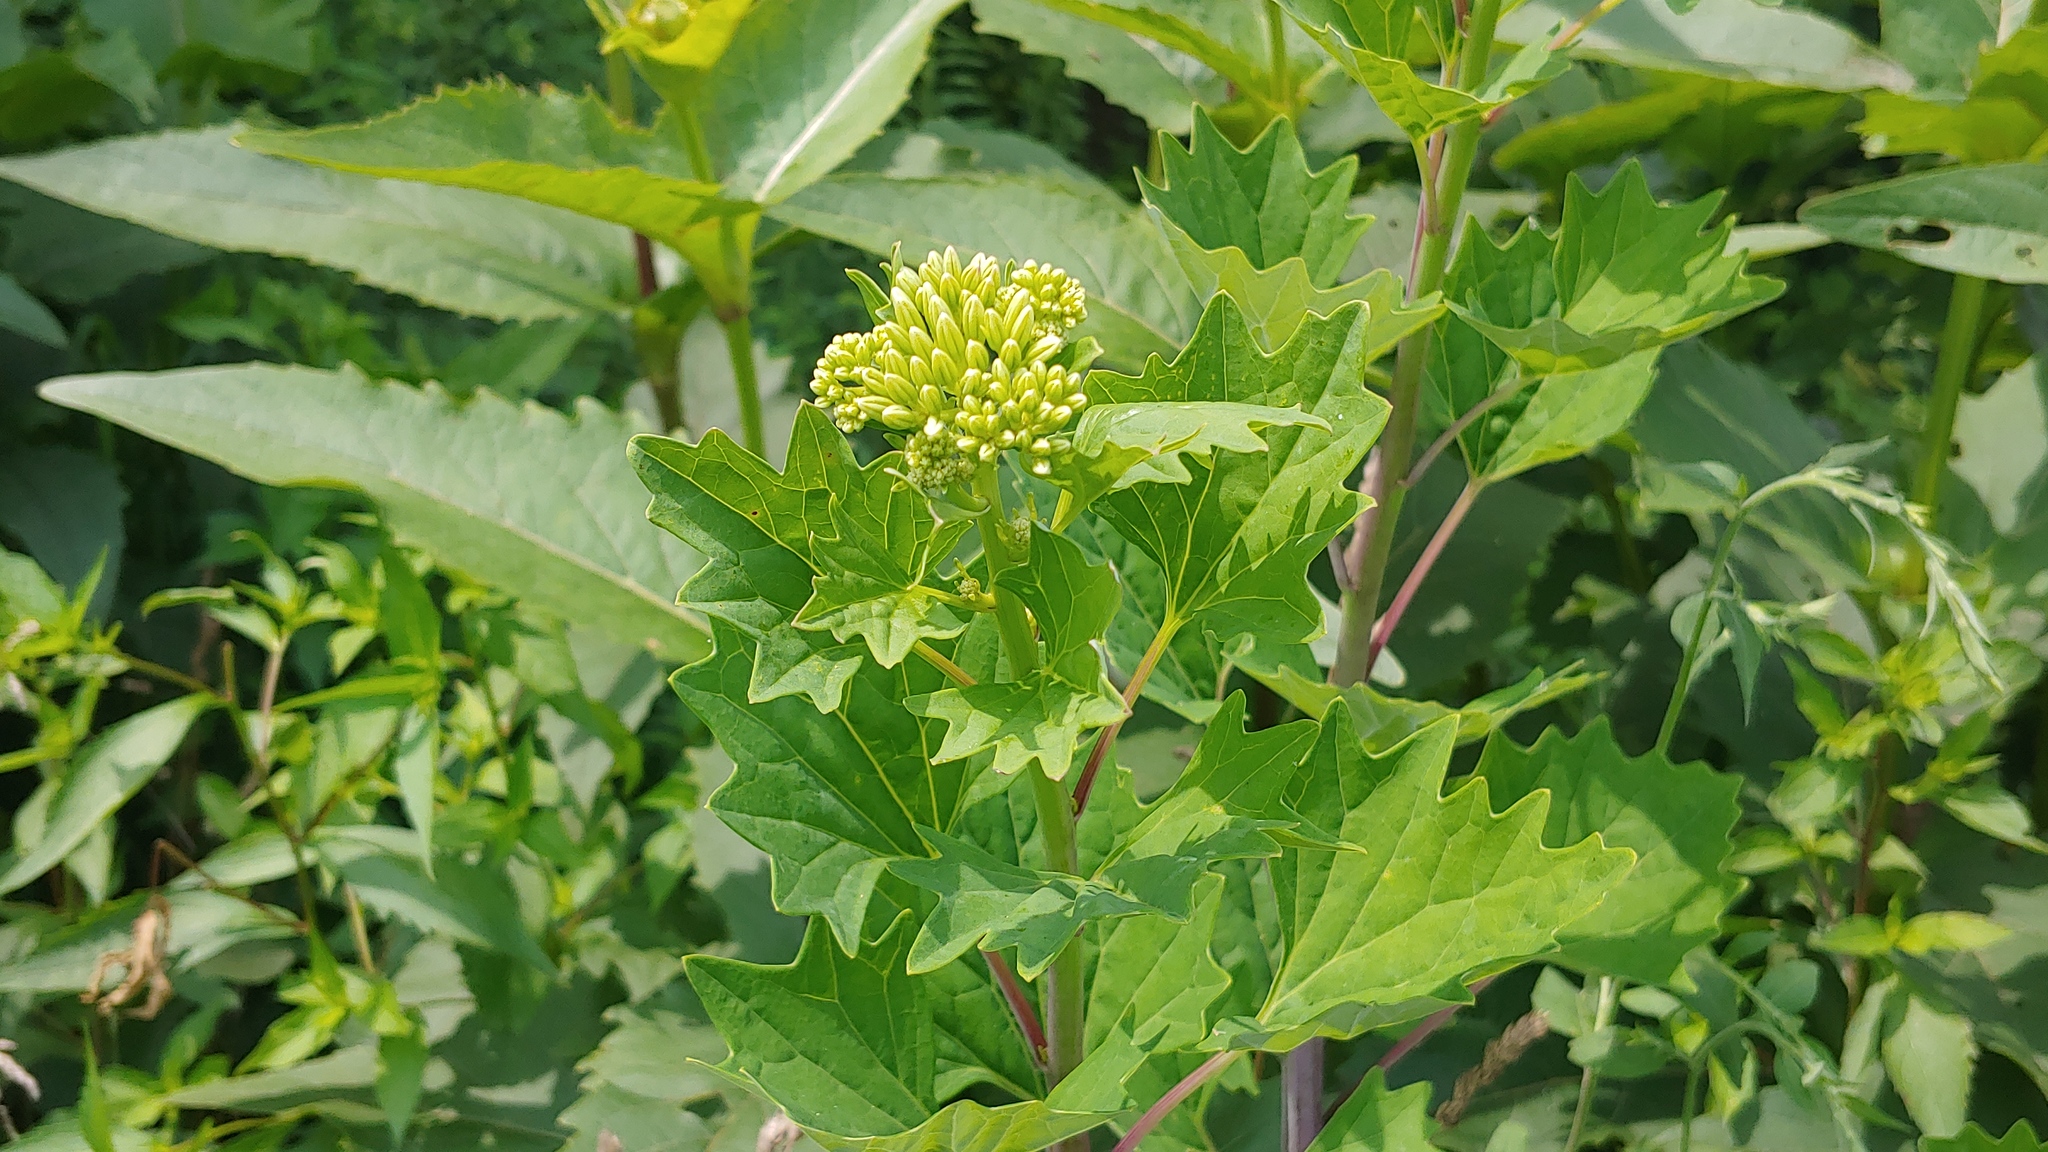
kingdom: Plantae
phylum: Tracheophyta
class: Magnoliopsida
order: Asterales
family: Asteraceae
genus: Arnoglossum
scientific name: Arnoglossum atriplicifolium
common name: Pale indian-plantain
